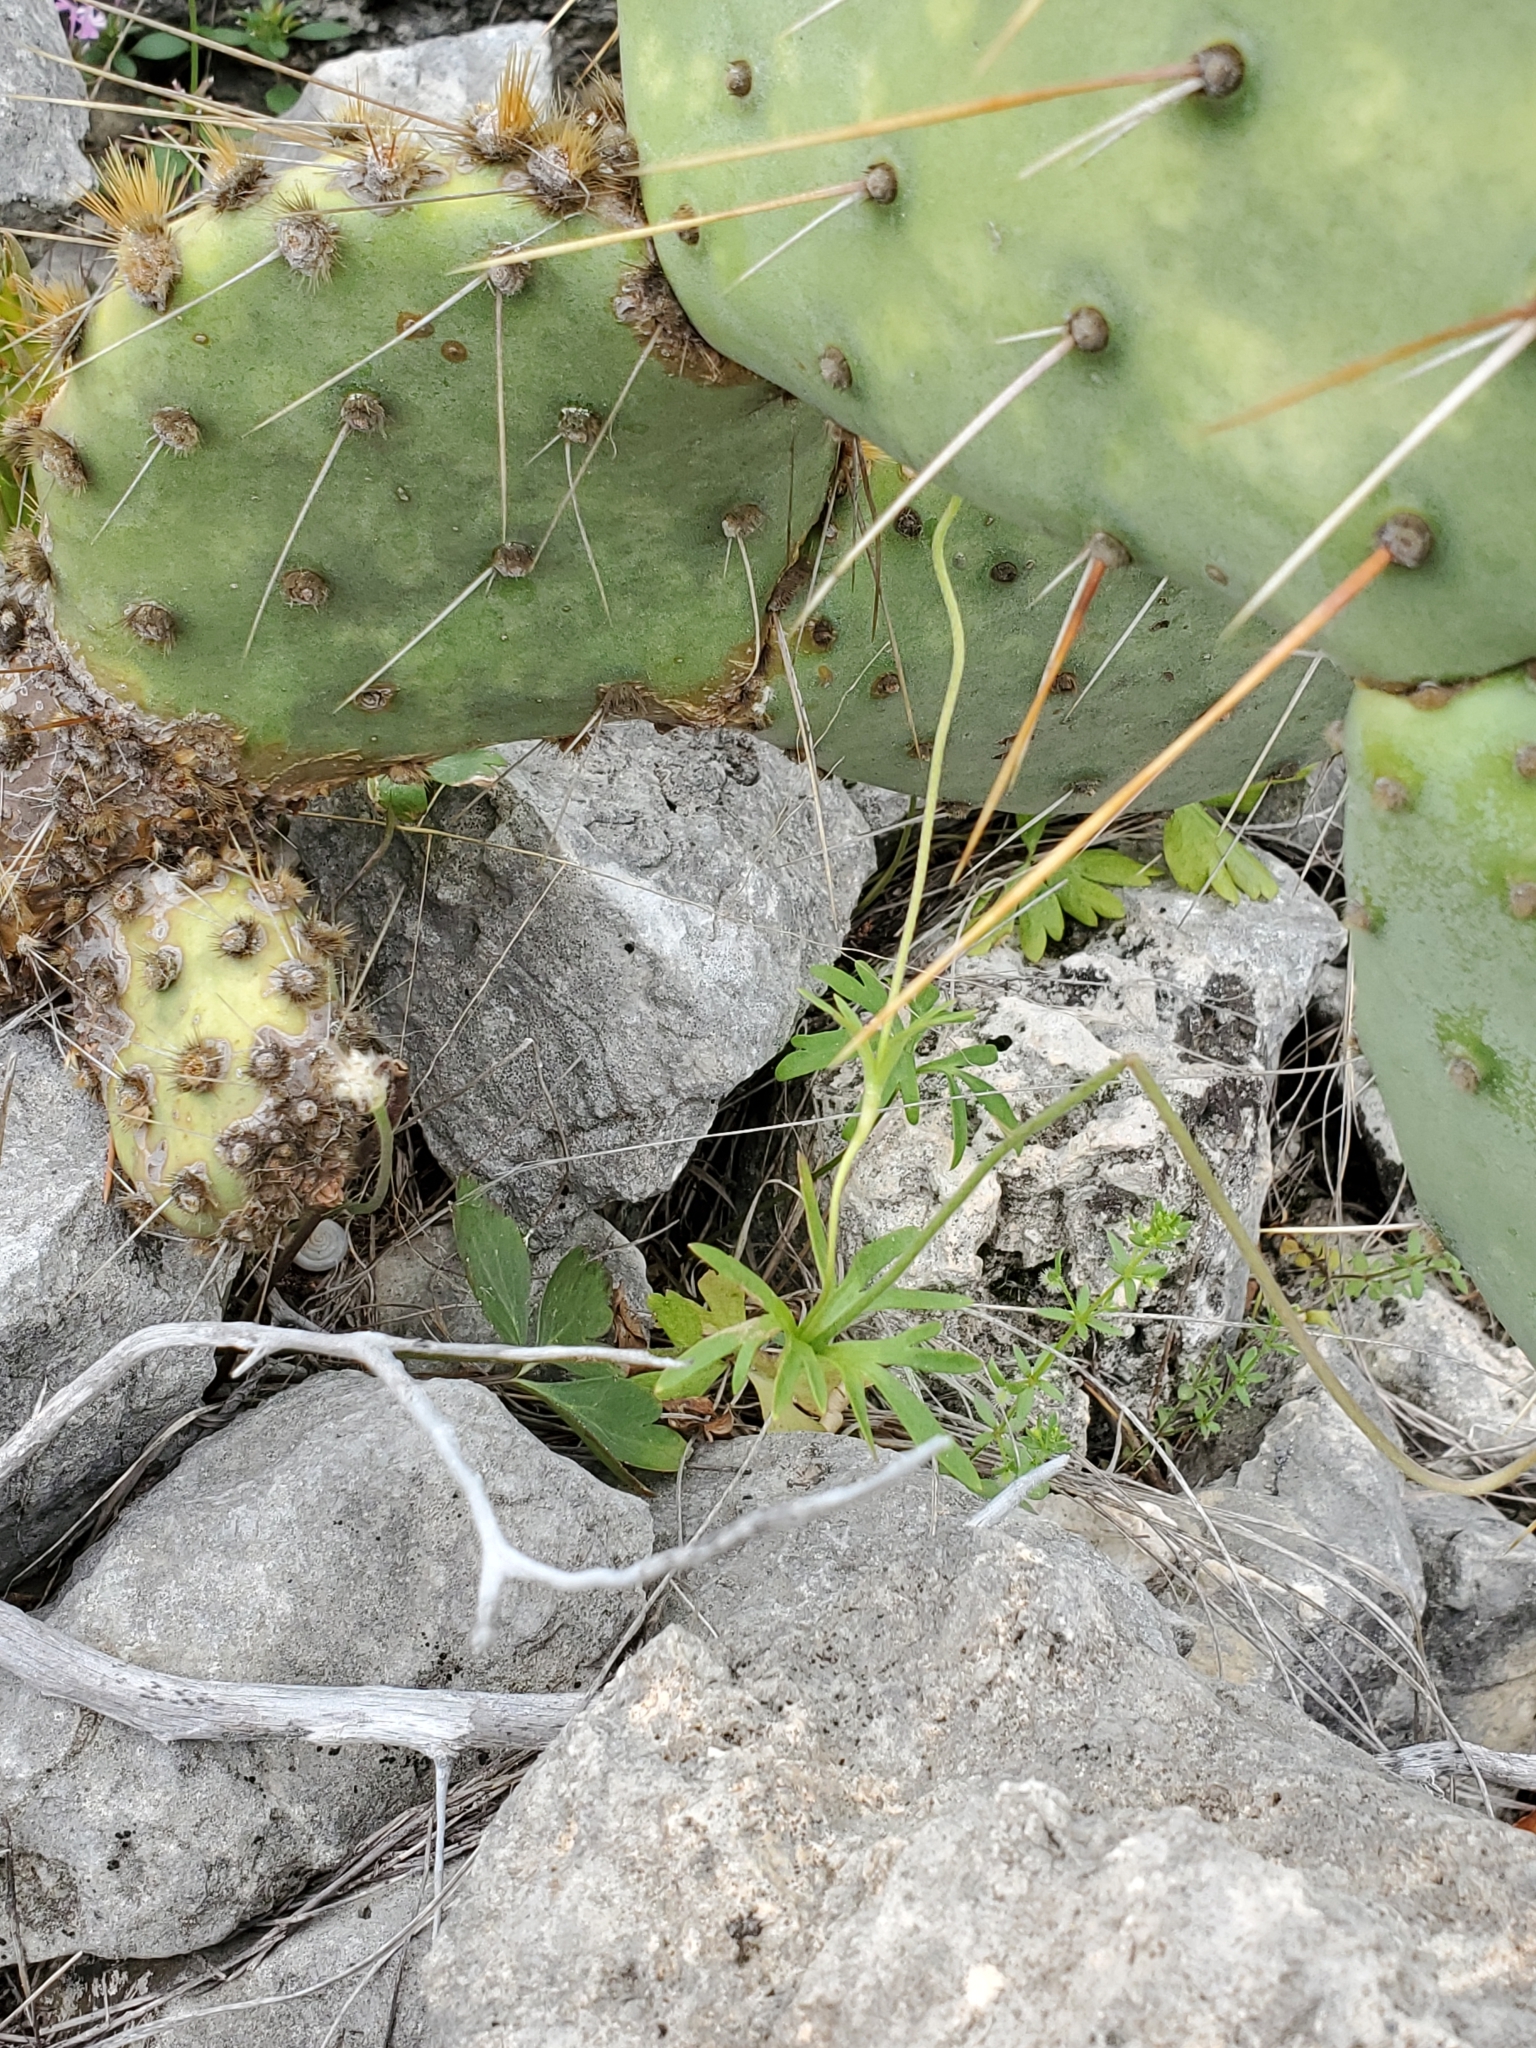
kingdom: Plantae
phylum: Tracheophyta
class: Magnoliopsida
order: Ranunculales
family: Ranunculaceae
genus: Anemone
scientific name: Anemone edwardsiana
